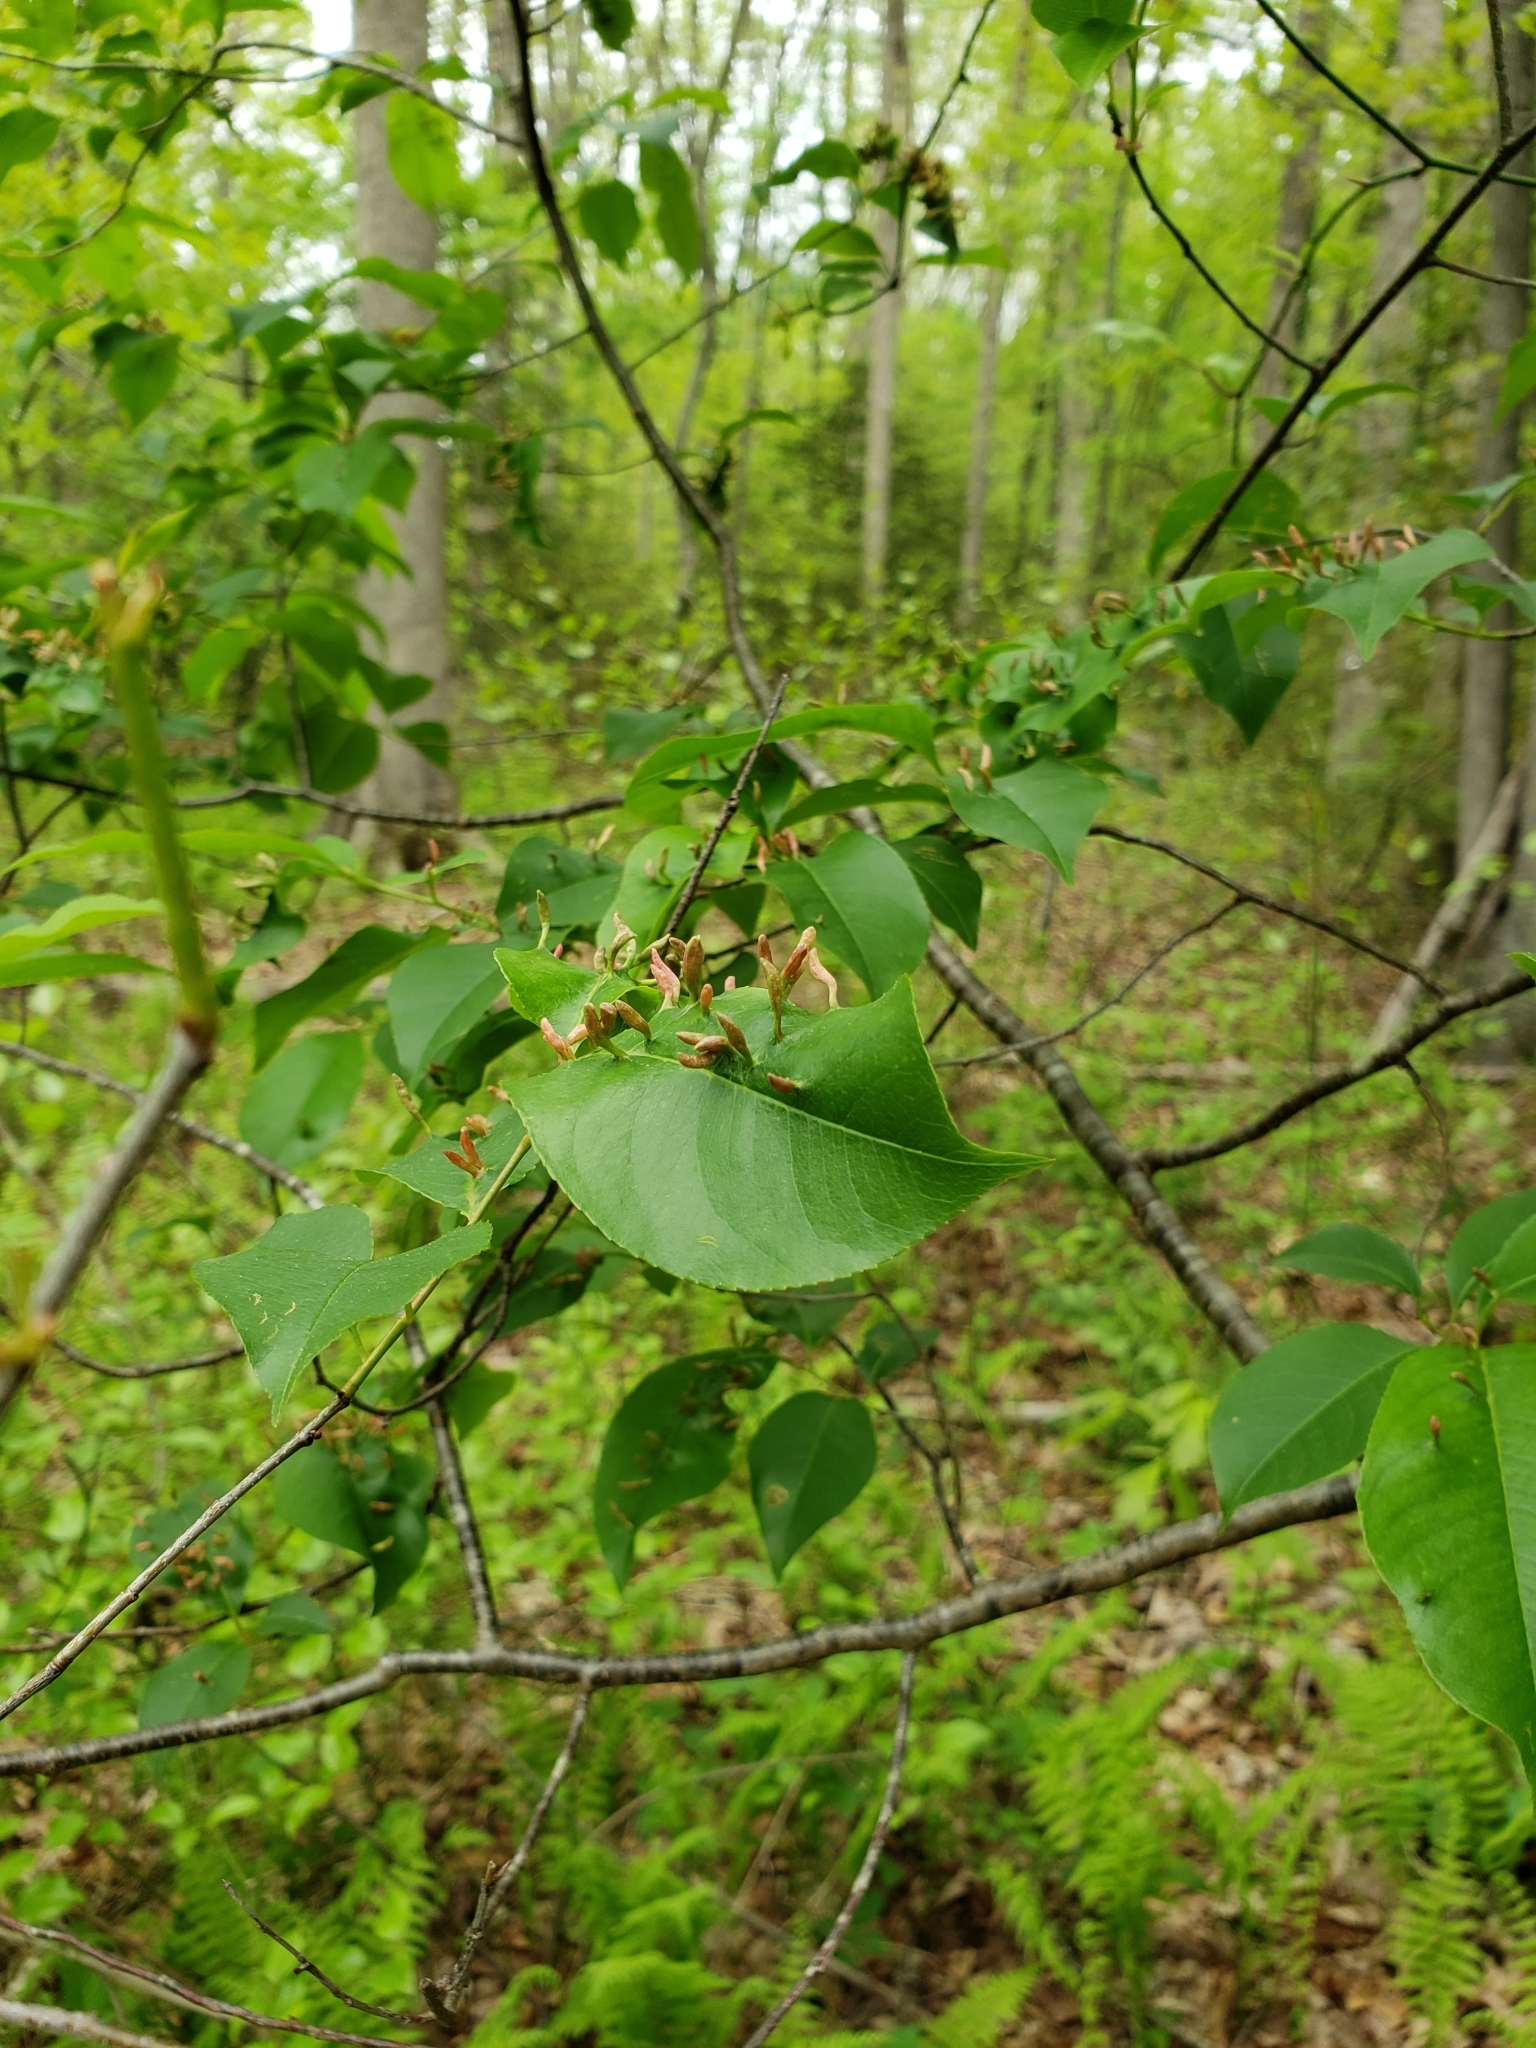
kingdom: Animalia
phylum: Arthropoda
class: Arachnida
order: Trombidiformes
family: Eriophyidae
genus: Eriophyes
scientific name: Eriophyes
